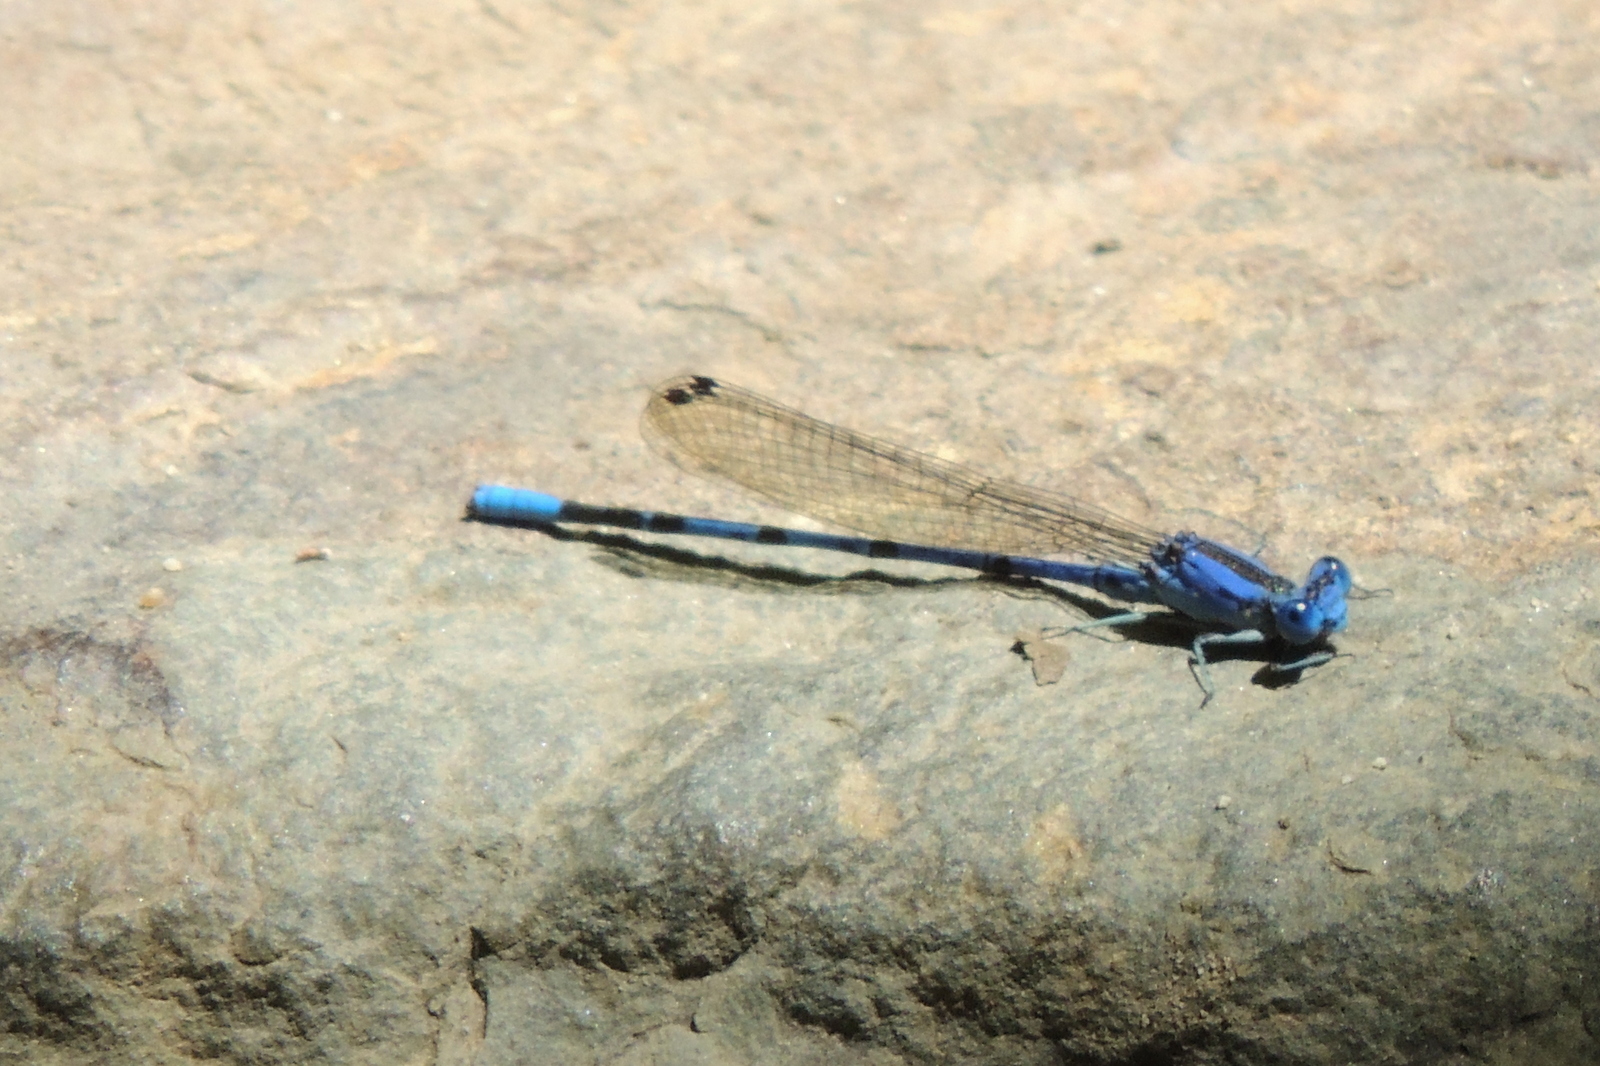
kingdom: Animalia
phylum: Arthropoda
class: Insecta
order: Odonata
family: Coenagrionidae
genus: Argia
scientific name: Argia vivida
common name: Vivid dancer
